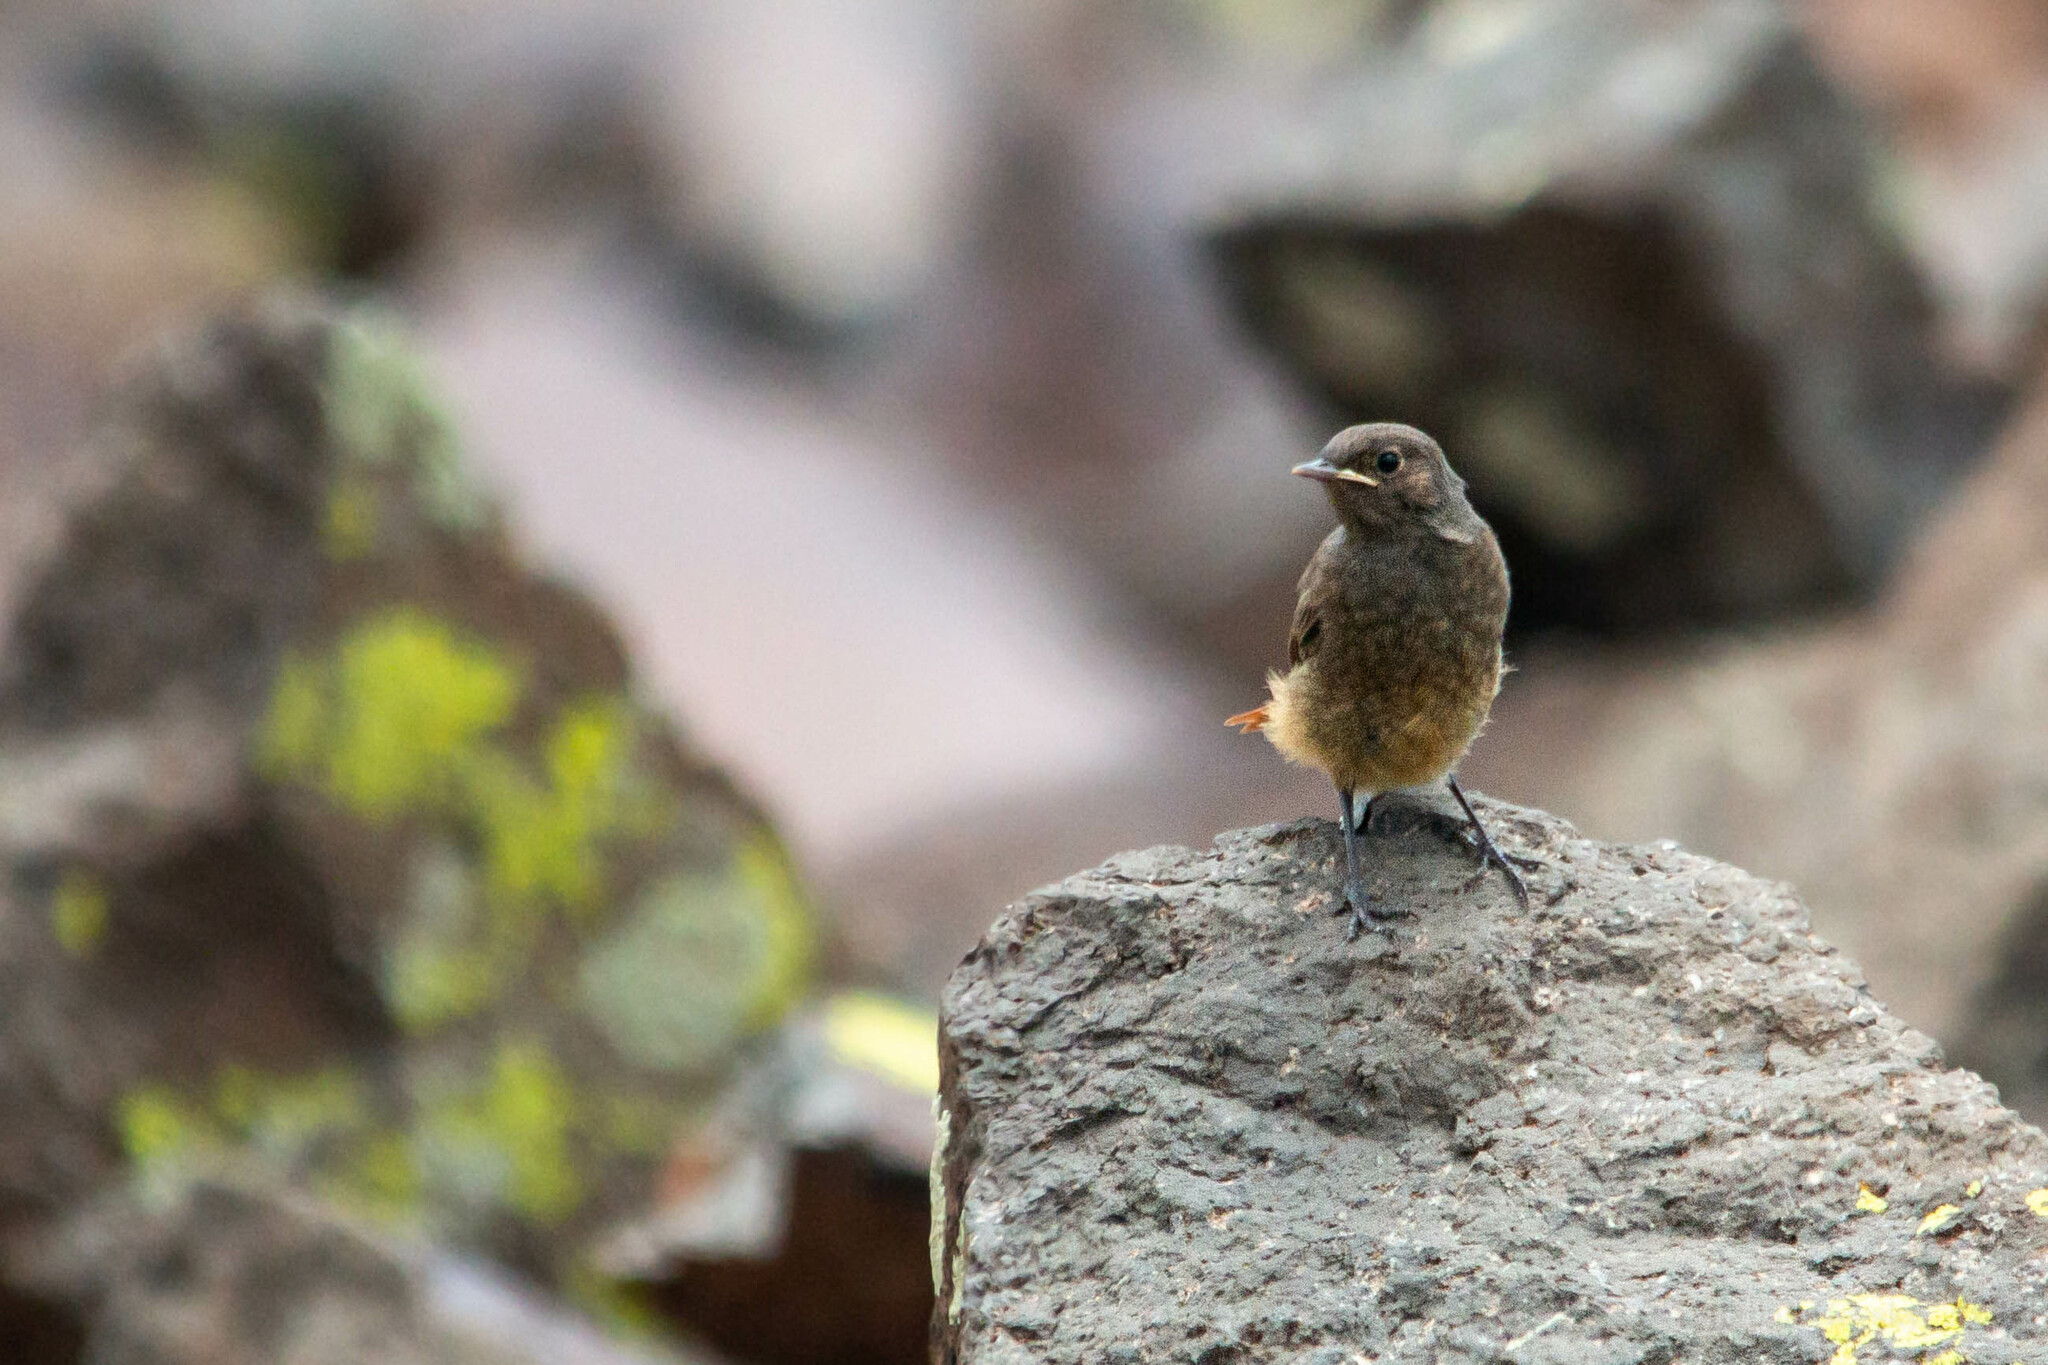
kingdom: Animalia
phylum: Chordata
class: Aves
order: Passeriformes
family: Muscicapidae
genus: Phoenicurus
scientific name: Phoenicurus ochruros
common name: Black redstart
